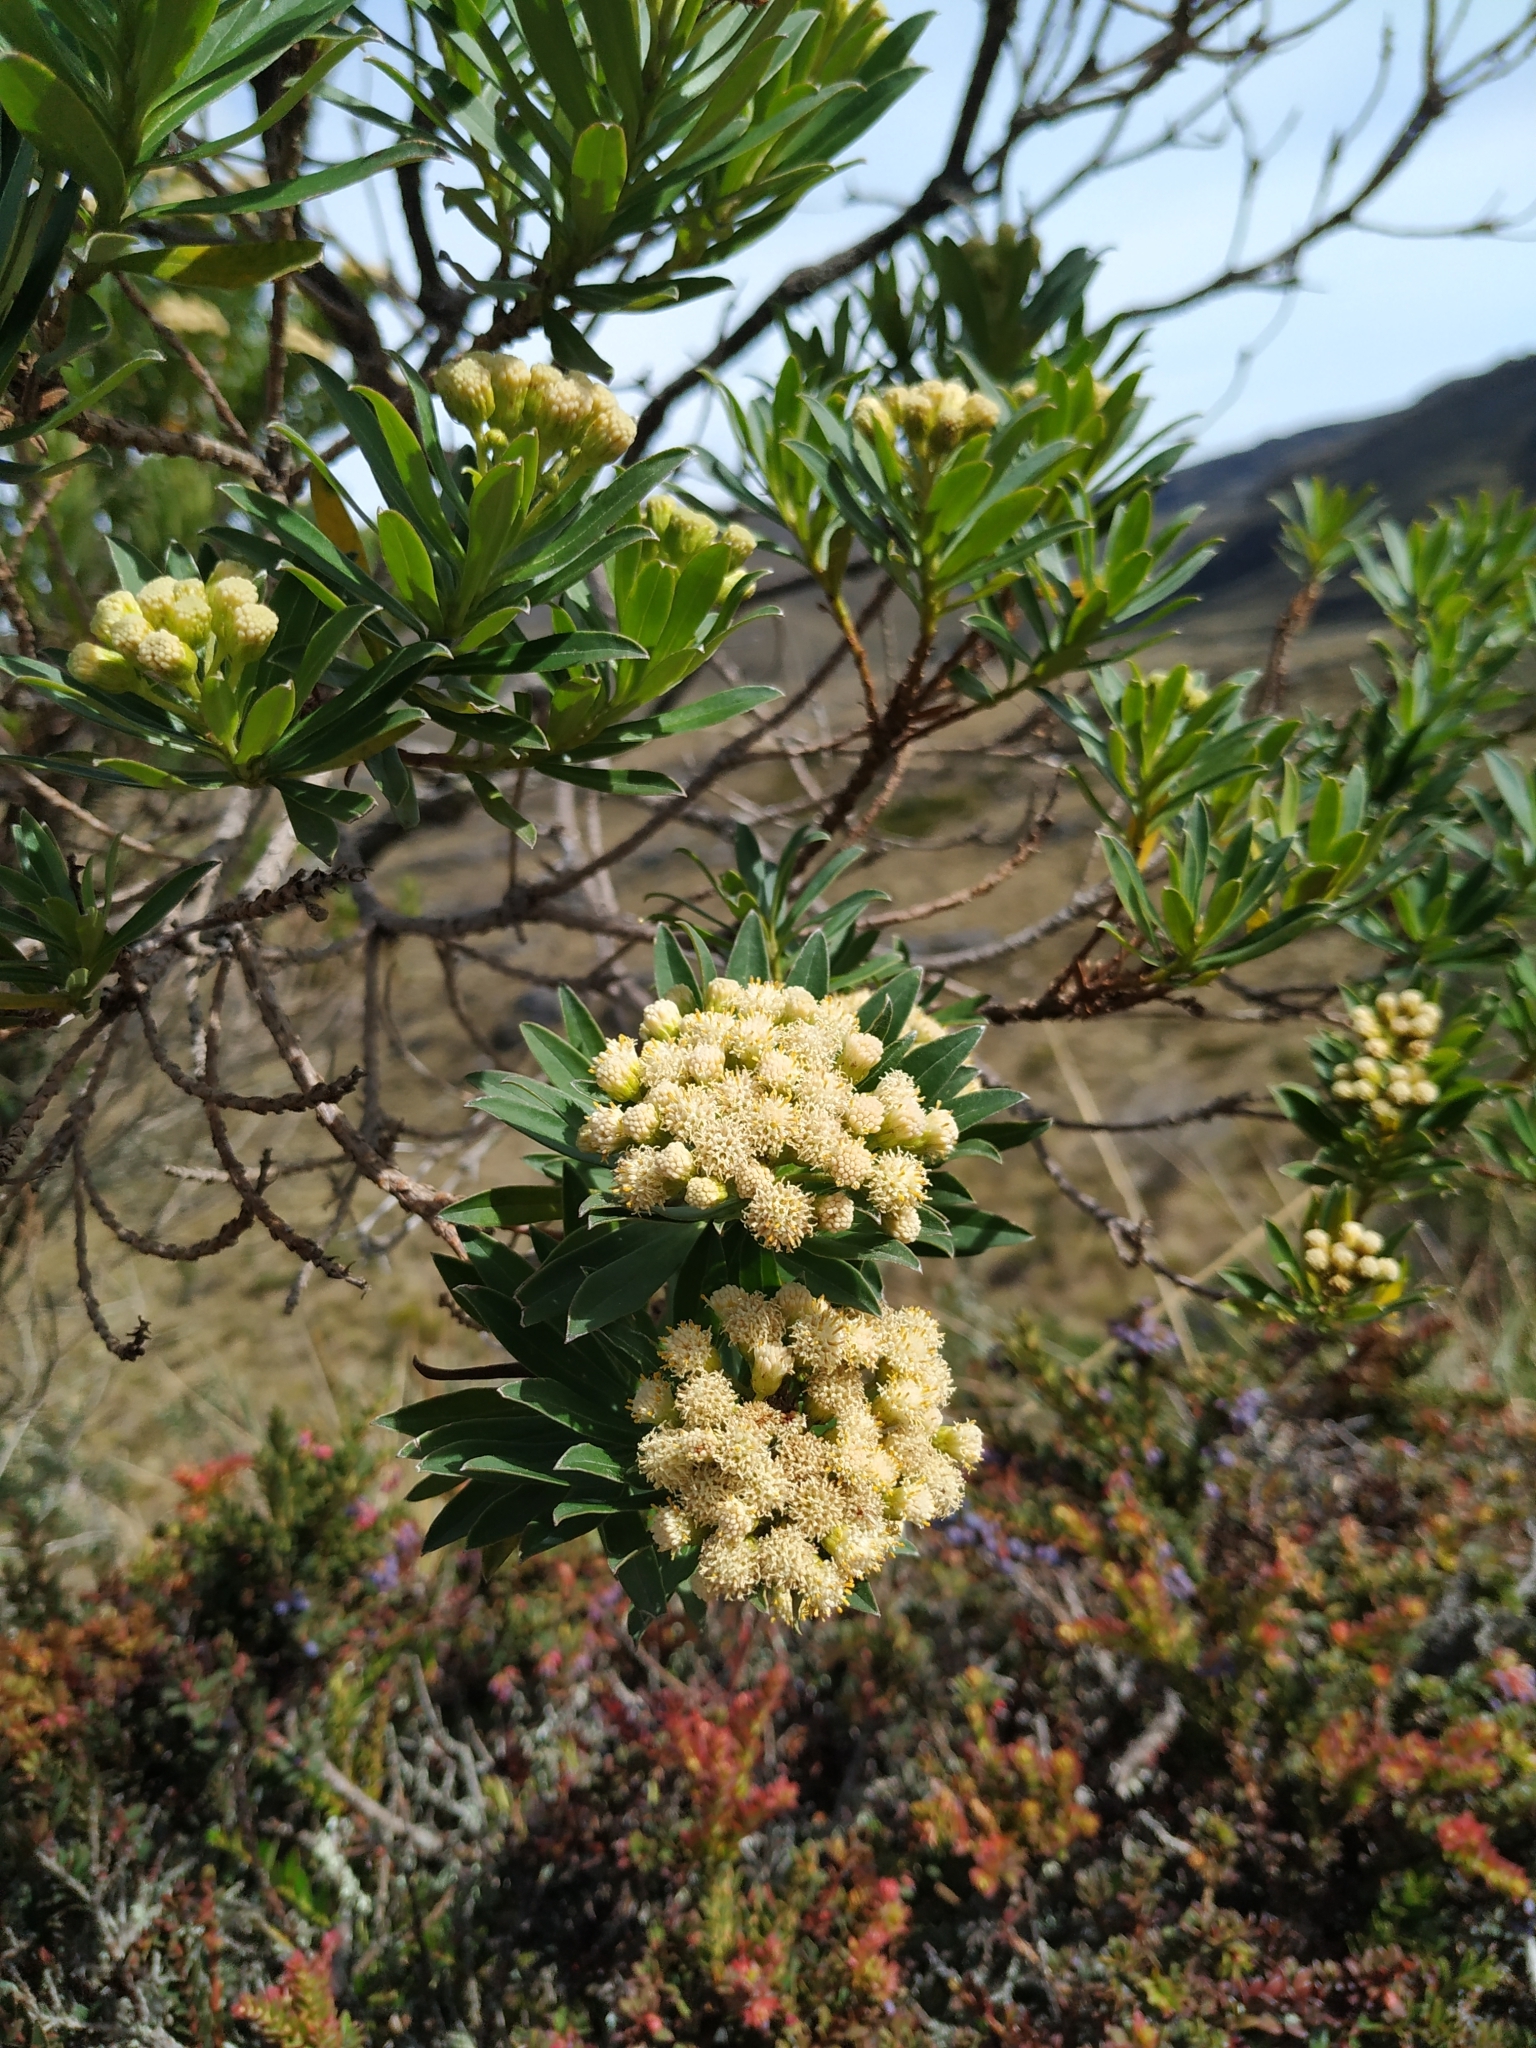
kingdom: Plantae
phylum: Tracheophyta
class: Magnoliopsida
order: Asterales
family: Asteraceae
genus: Monticalia
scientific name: Monticalia pulchella
